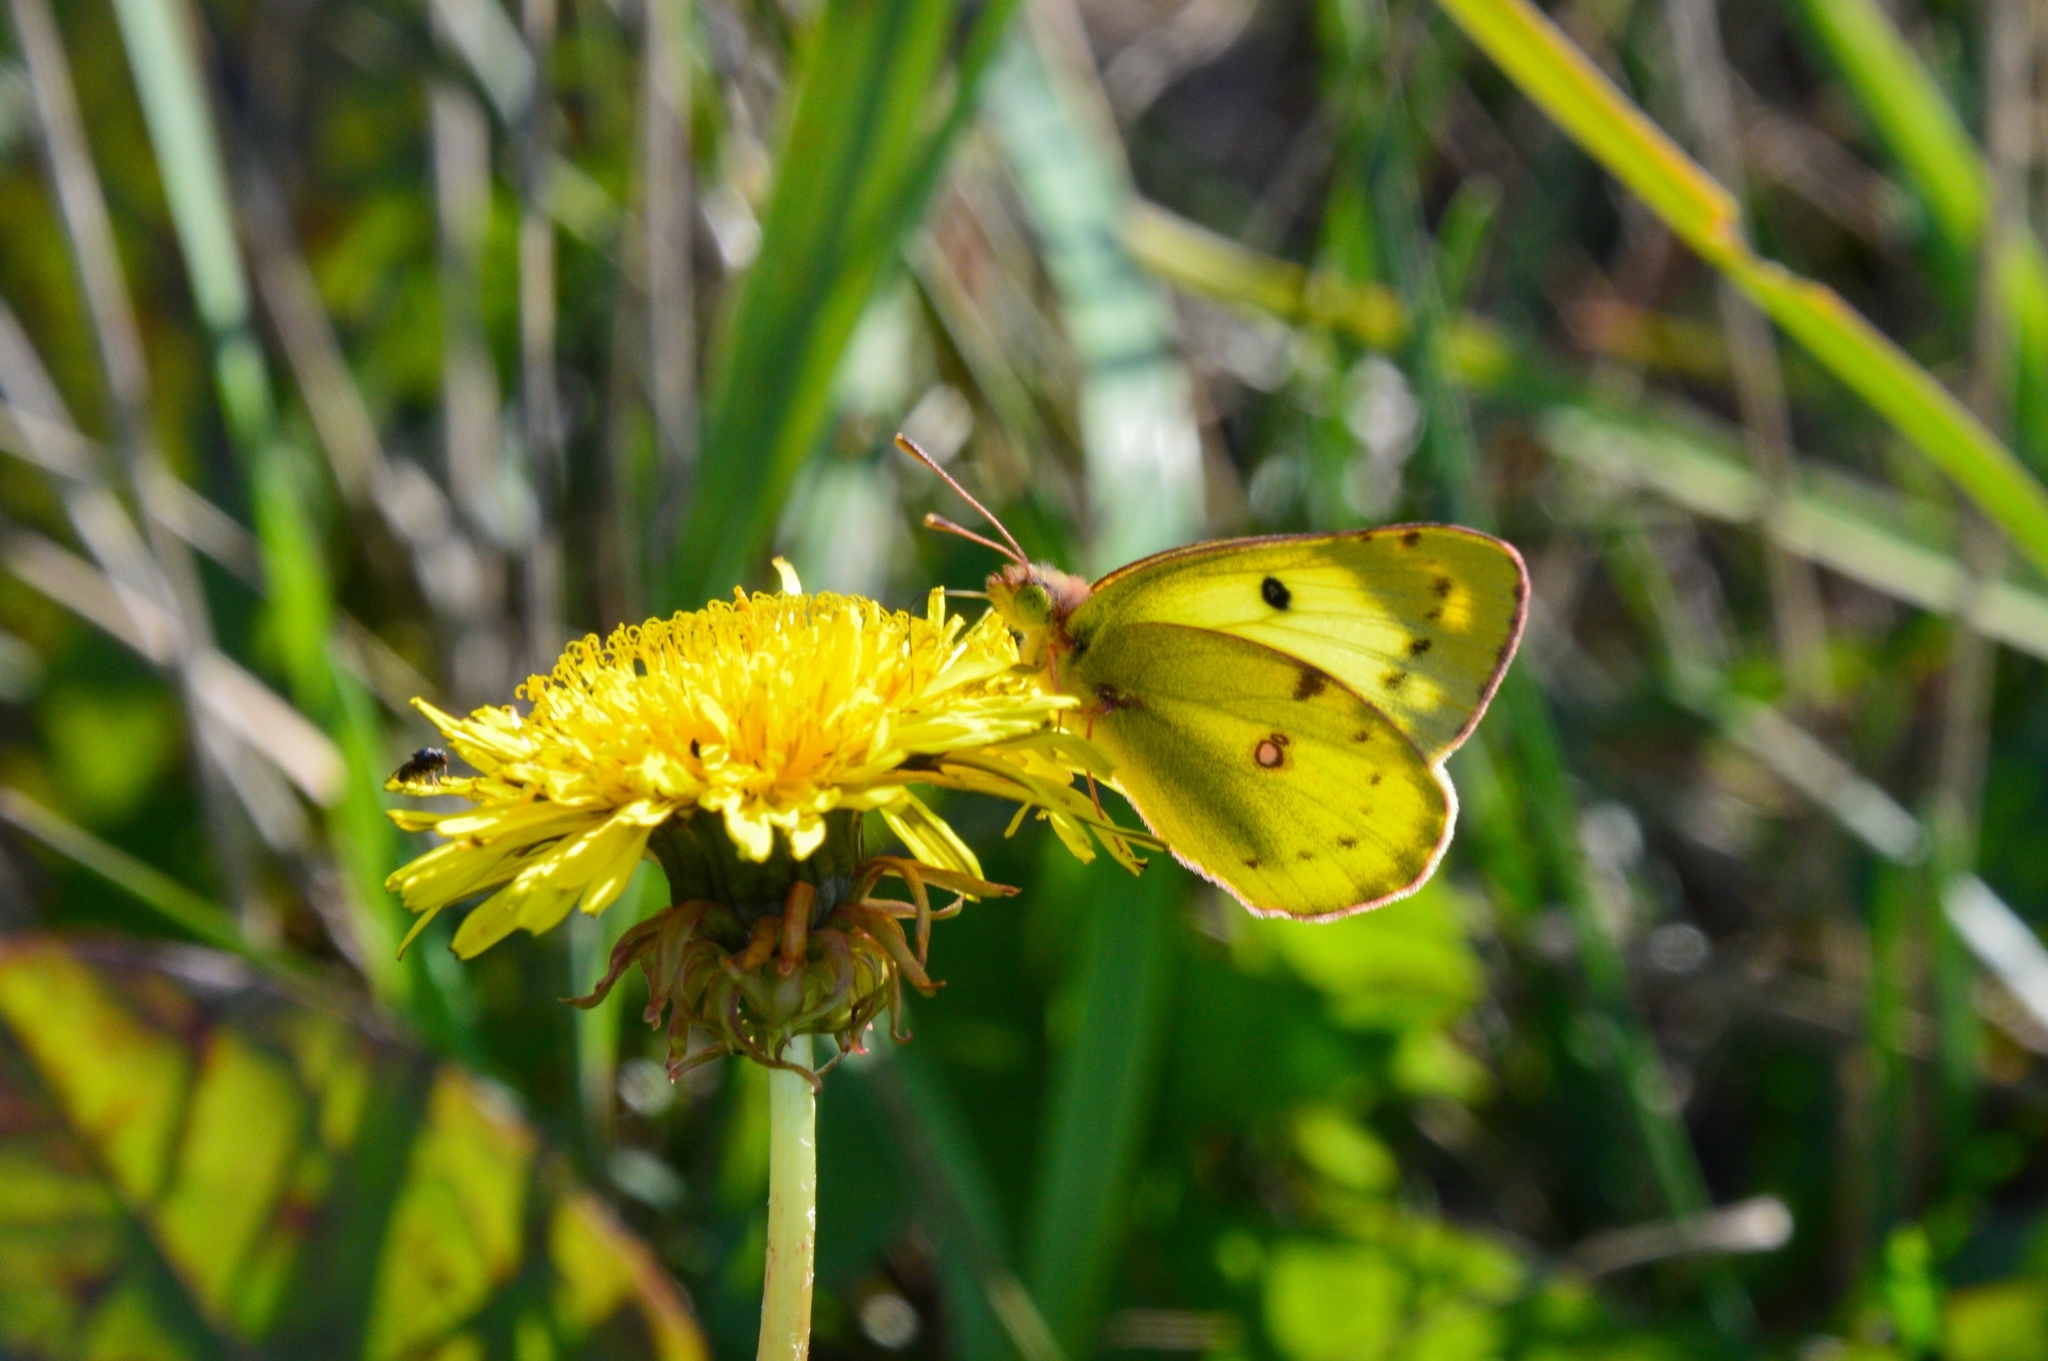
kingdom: Animalia
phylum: Arthropoda
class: Insecta
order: Lepidoptera
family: Pieridae
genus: Colias
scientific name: Colias hyale
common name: Pale clouded yellow
